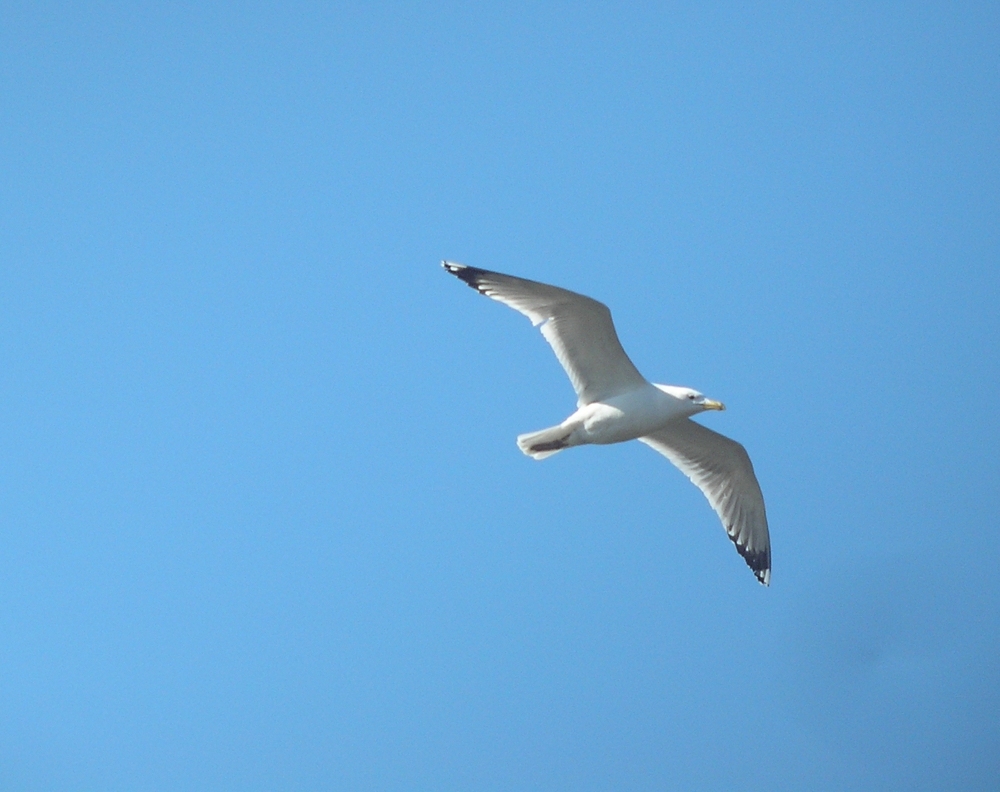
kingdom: Animalia
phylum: Chordata
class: Aves
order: Charadriiformes
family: Laridae
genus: Larus
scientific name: Larus cachinnans
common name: Caspian gull
